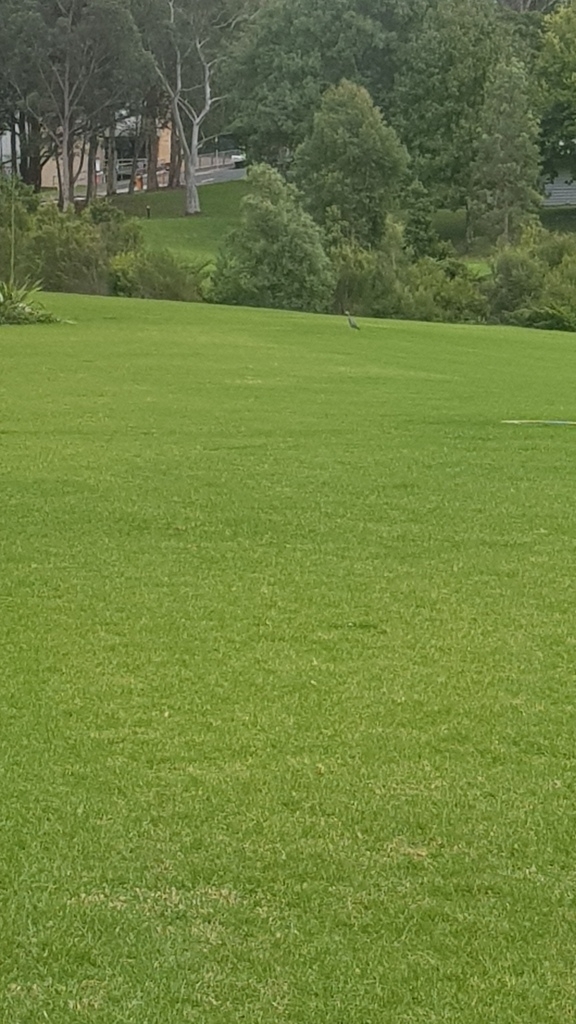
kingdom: Animalia
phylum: Chordata
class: Aves
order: Pelecaniformes
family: Ardeidae
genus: Egretta
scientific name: Egretta novaehollandiae
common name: White-faced heron
